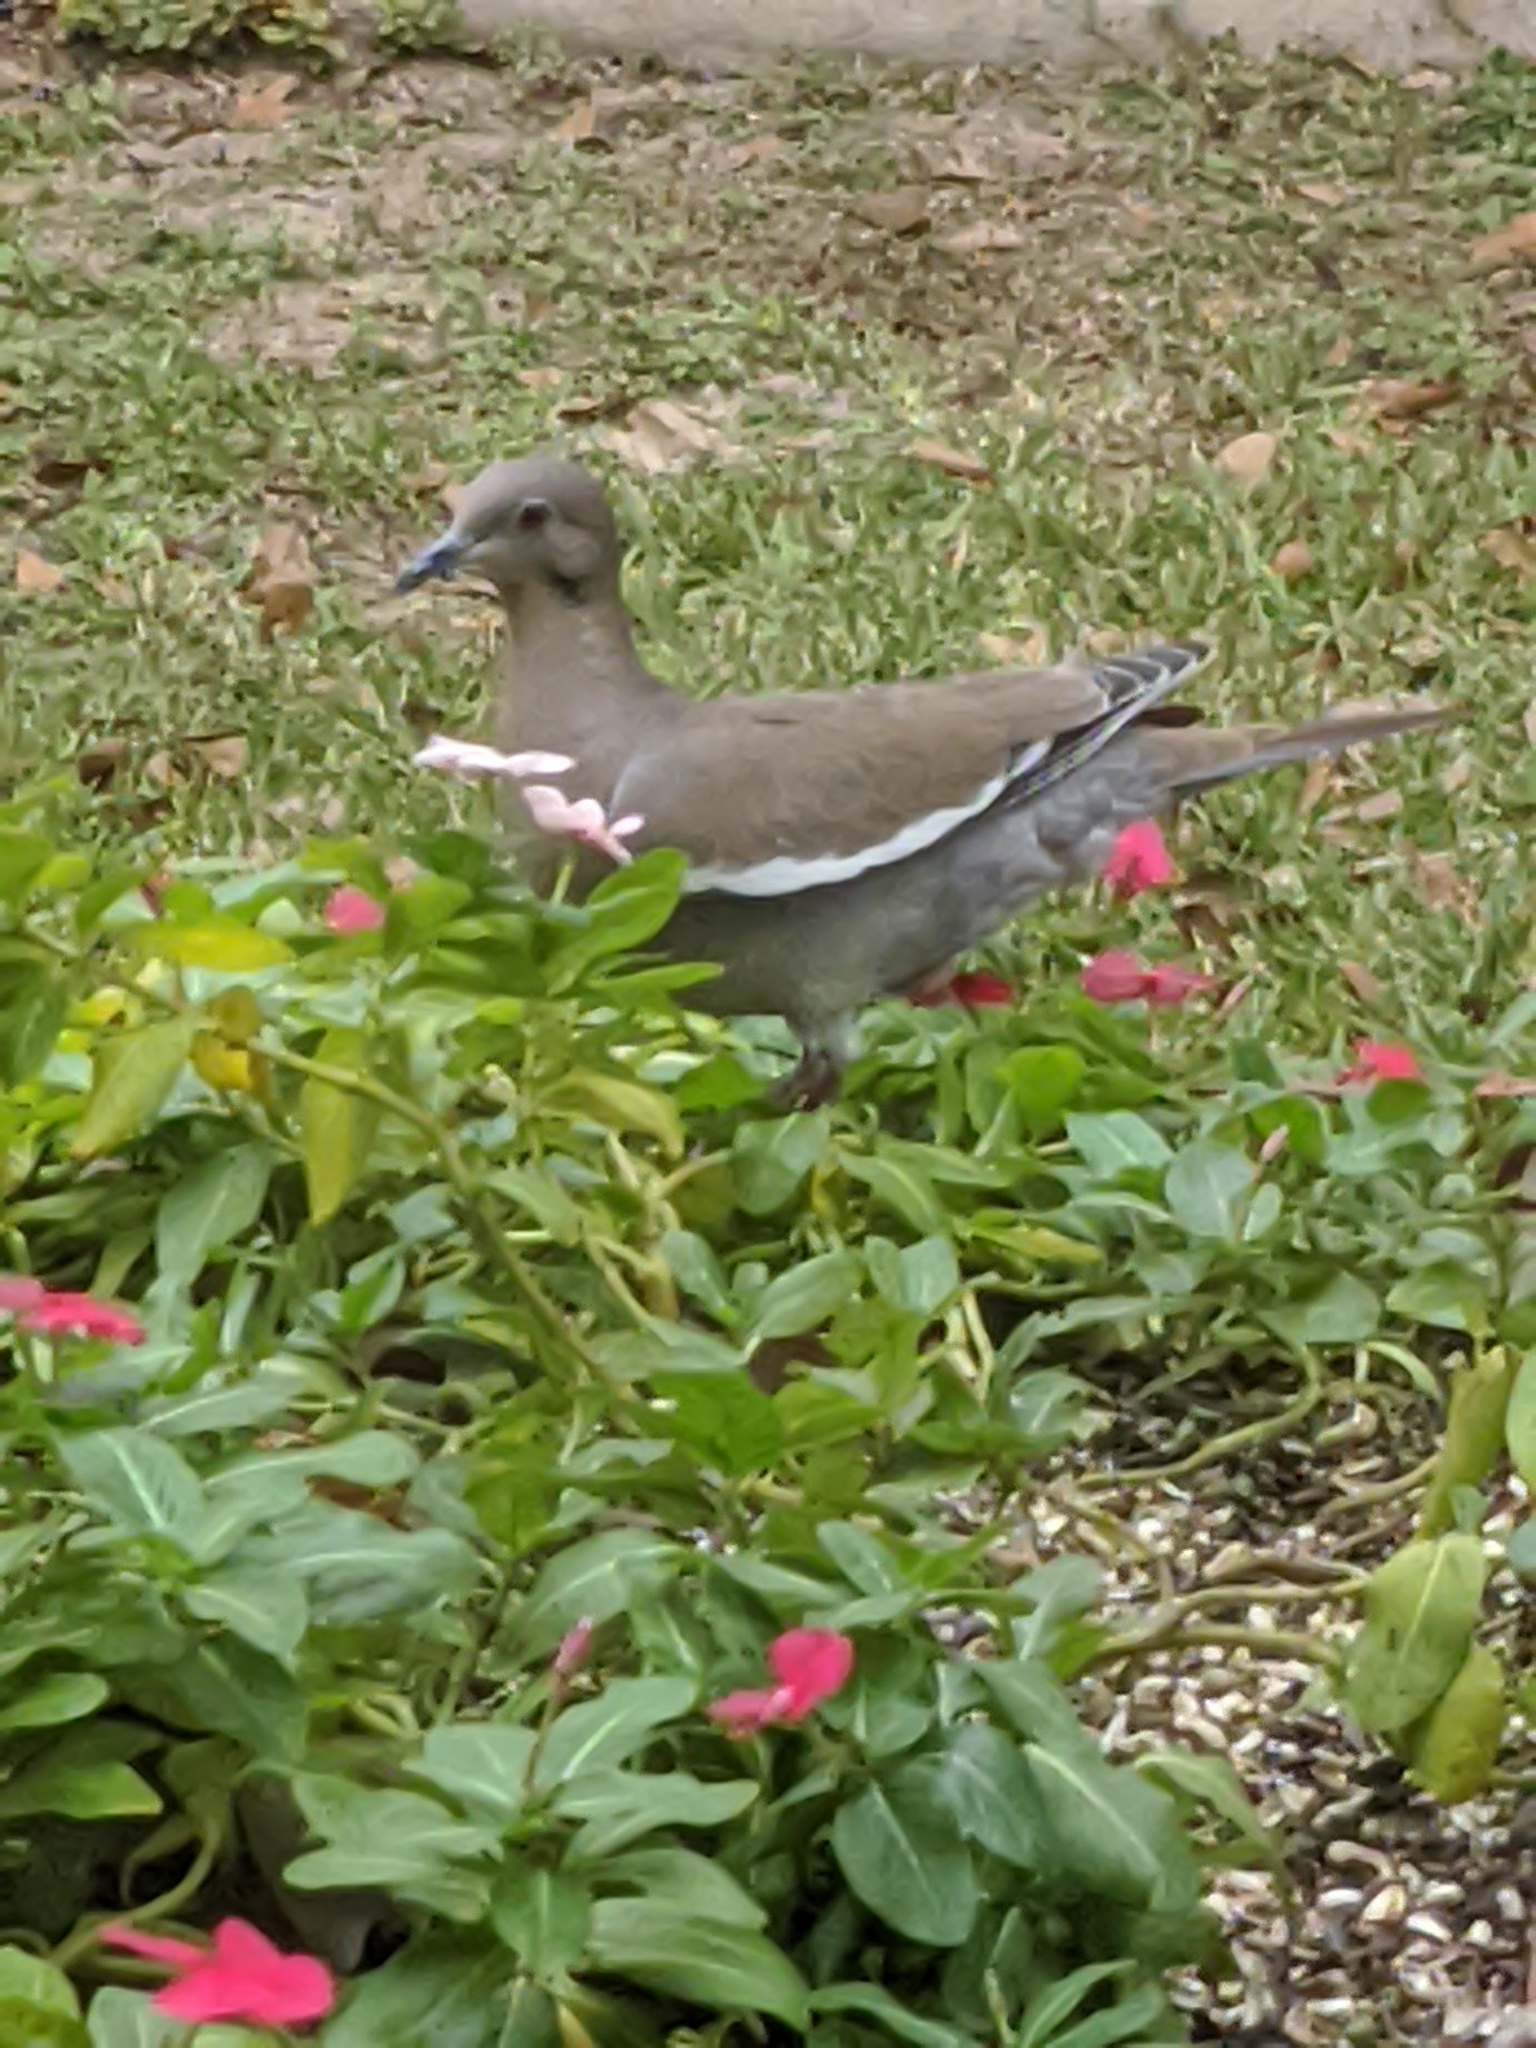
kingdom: Animalia
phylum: Chordata
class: Aves
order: Columbiformes
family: Columbidae
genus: Zenaida
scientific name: Zenaida asiatica
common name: White-winged dove
